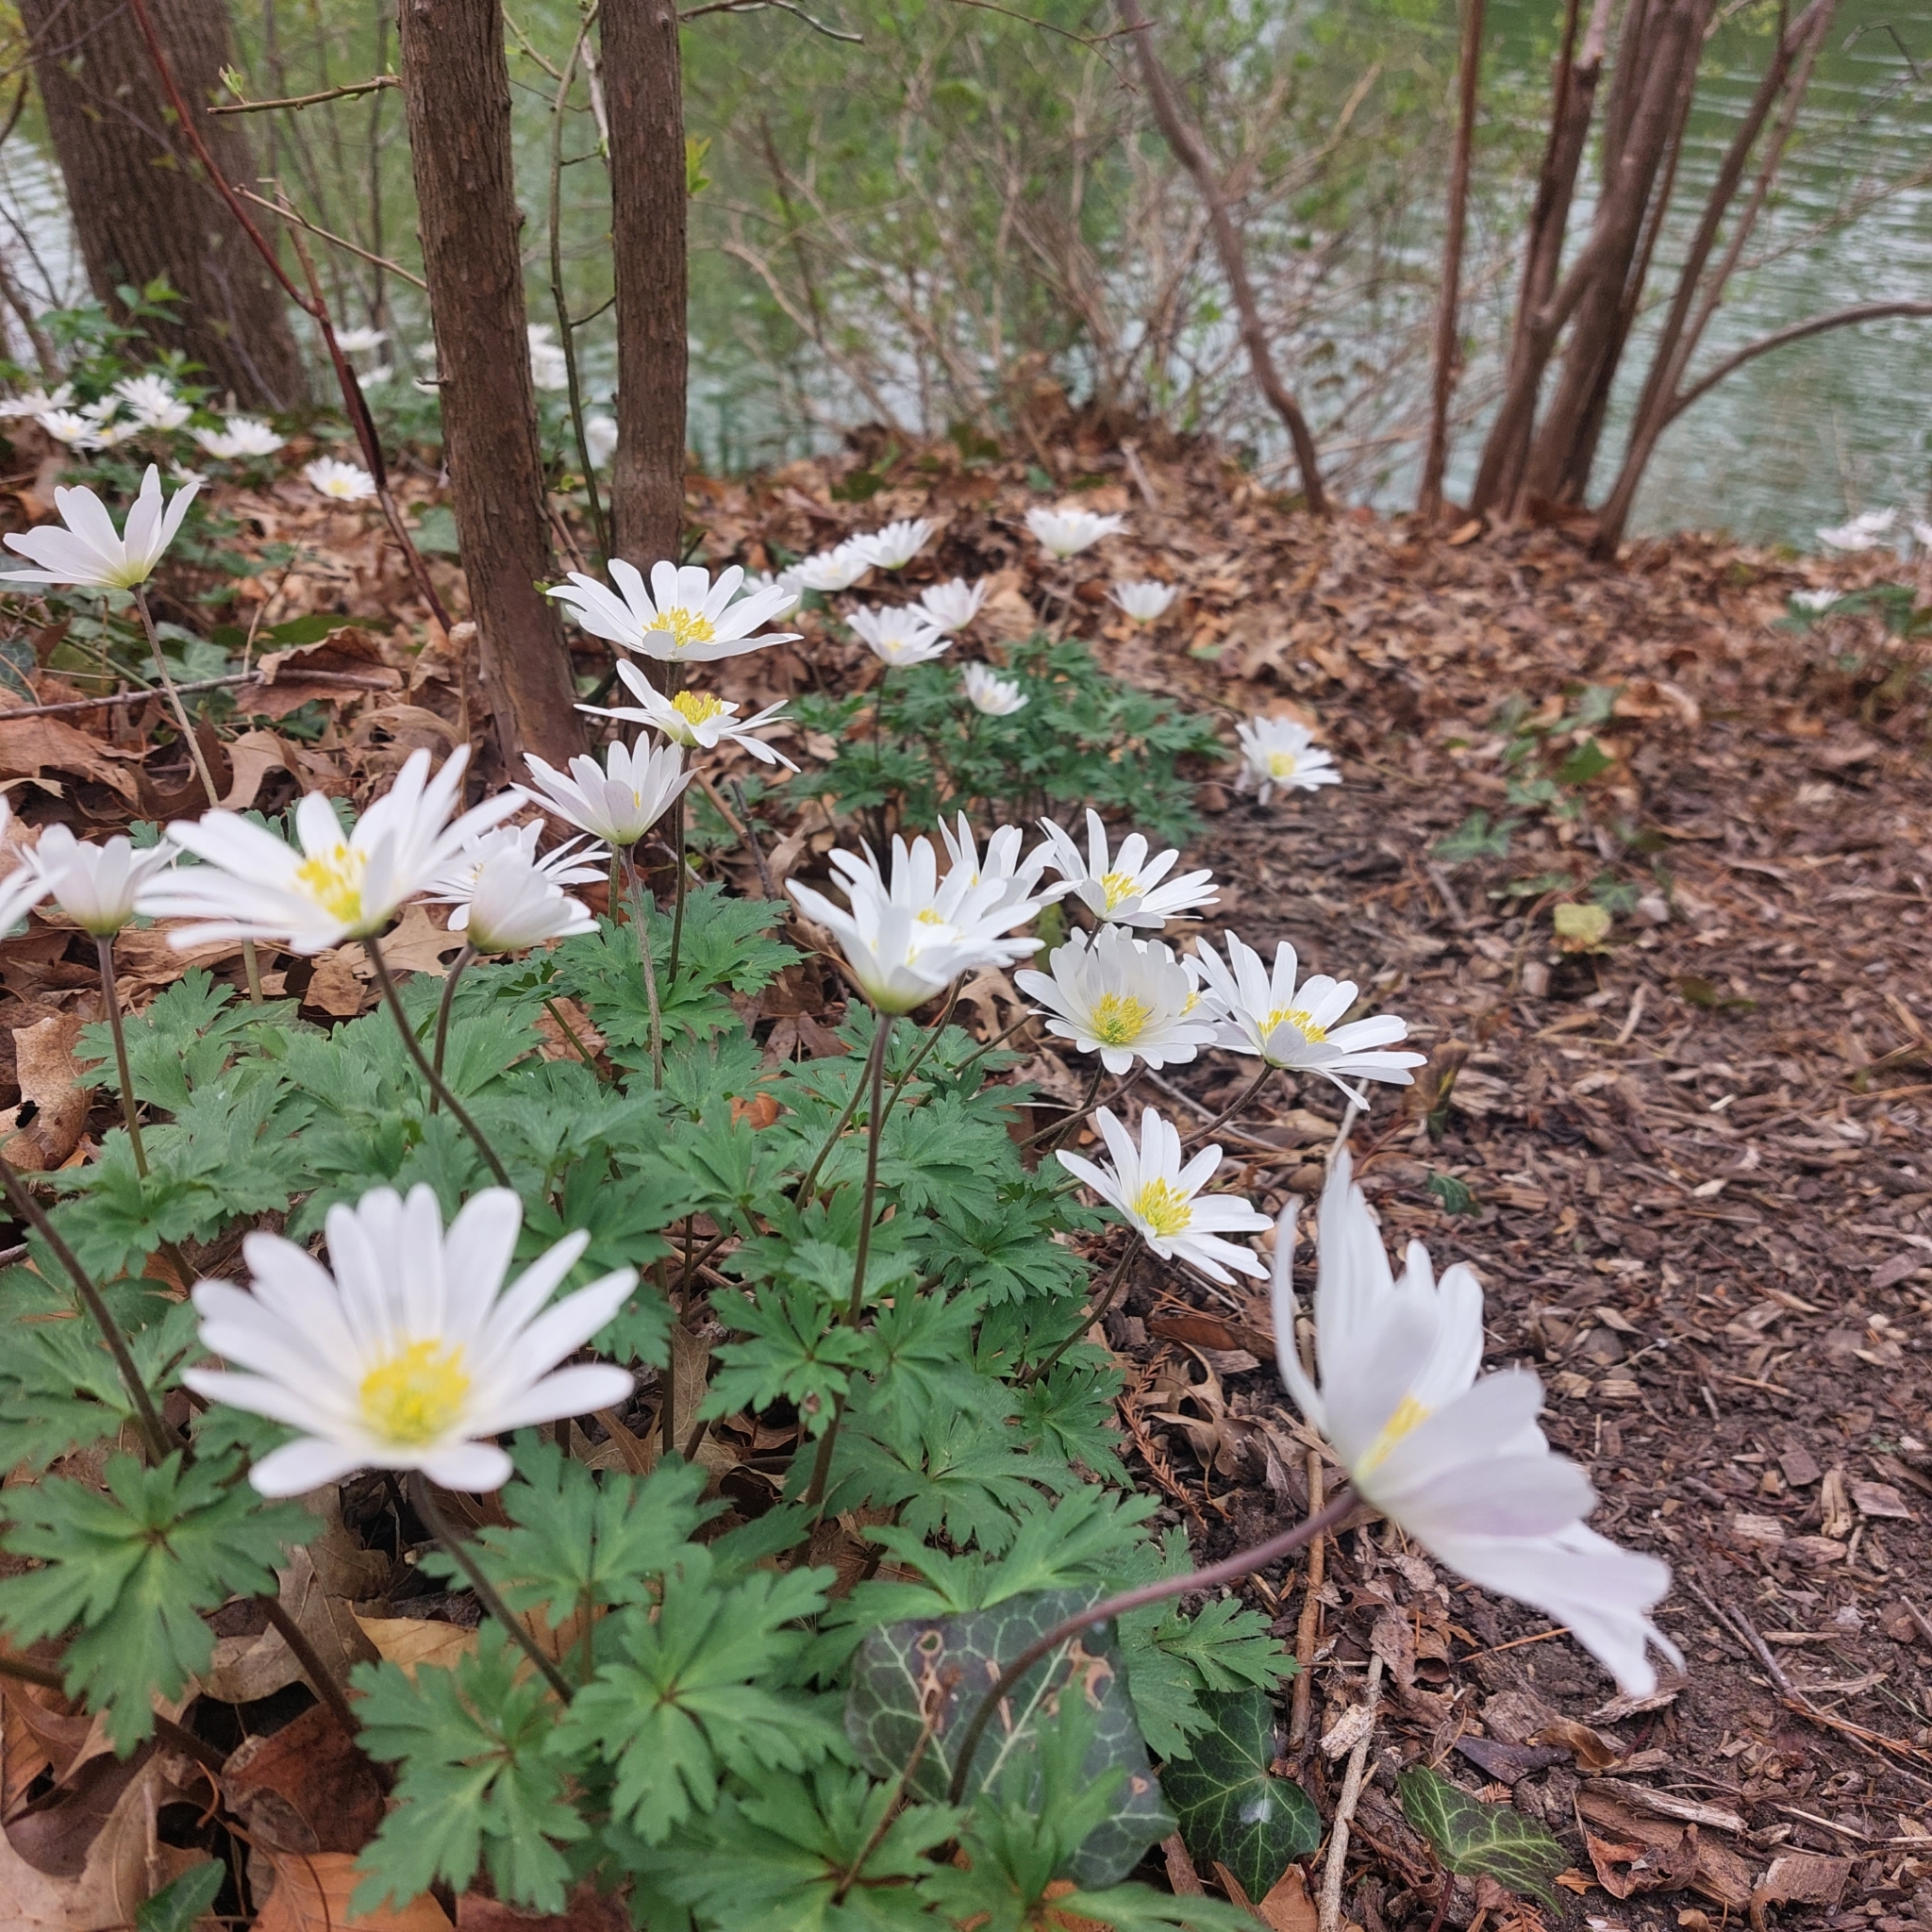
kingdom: Plantae
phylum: Tracheophyta
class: Magnoliopsida
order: Ranunculales
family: Ranunculaceae
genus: Anemone
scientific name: Anemone blanda
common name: Balkan anemone
